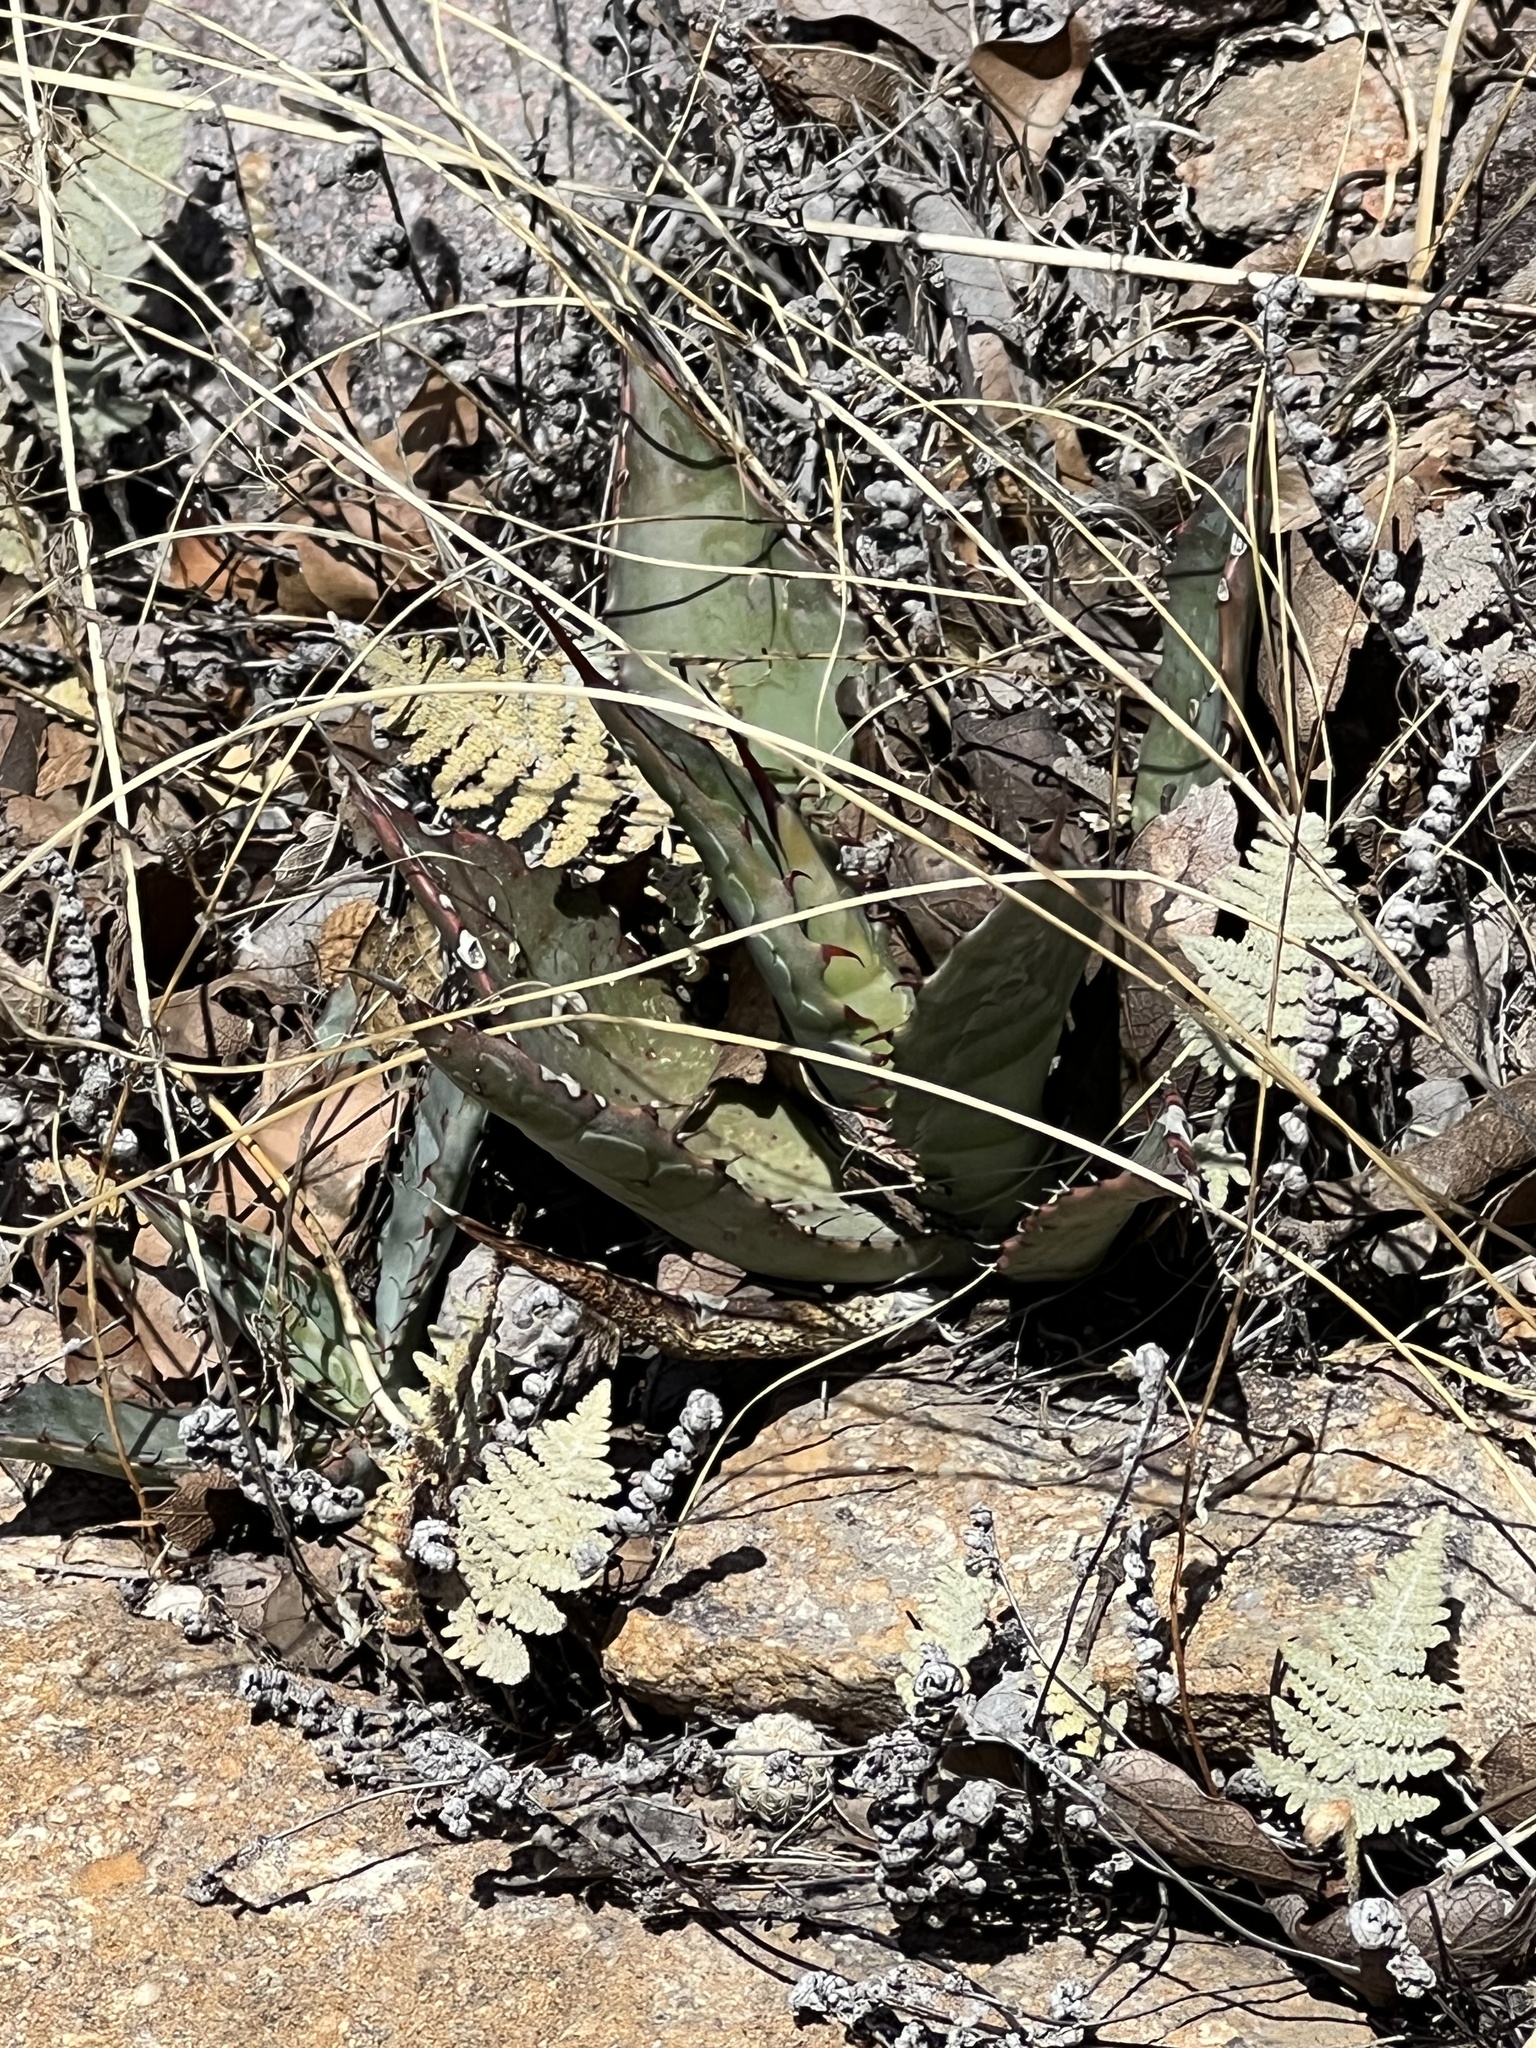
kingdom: Plantae
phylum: Tracheophyta
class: Liliopsida
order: Asparagales
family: Asparagaceae
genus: Agave
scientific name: Agave palmeri
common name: Palmer agave
